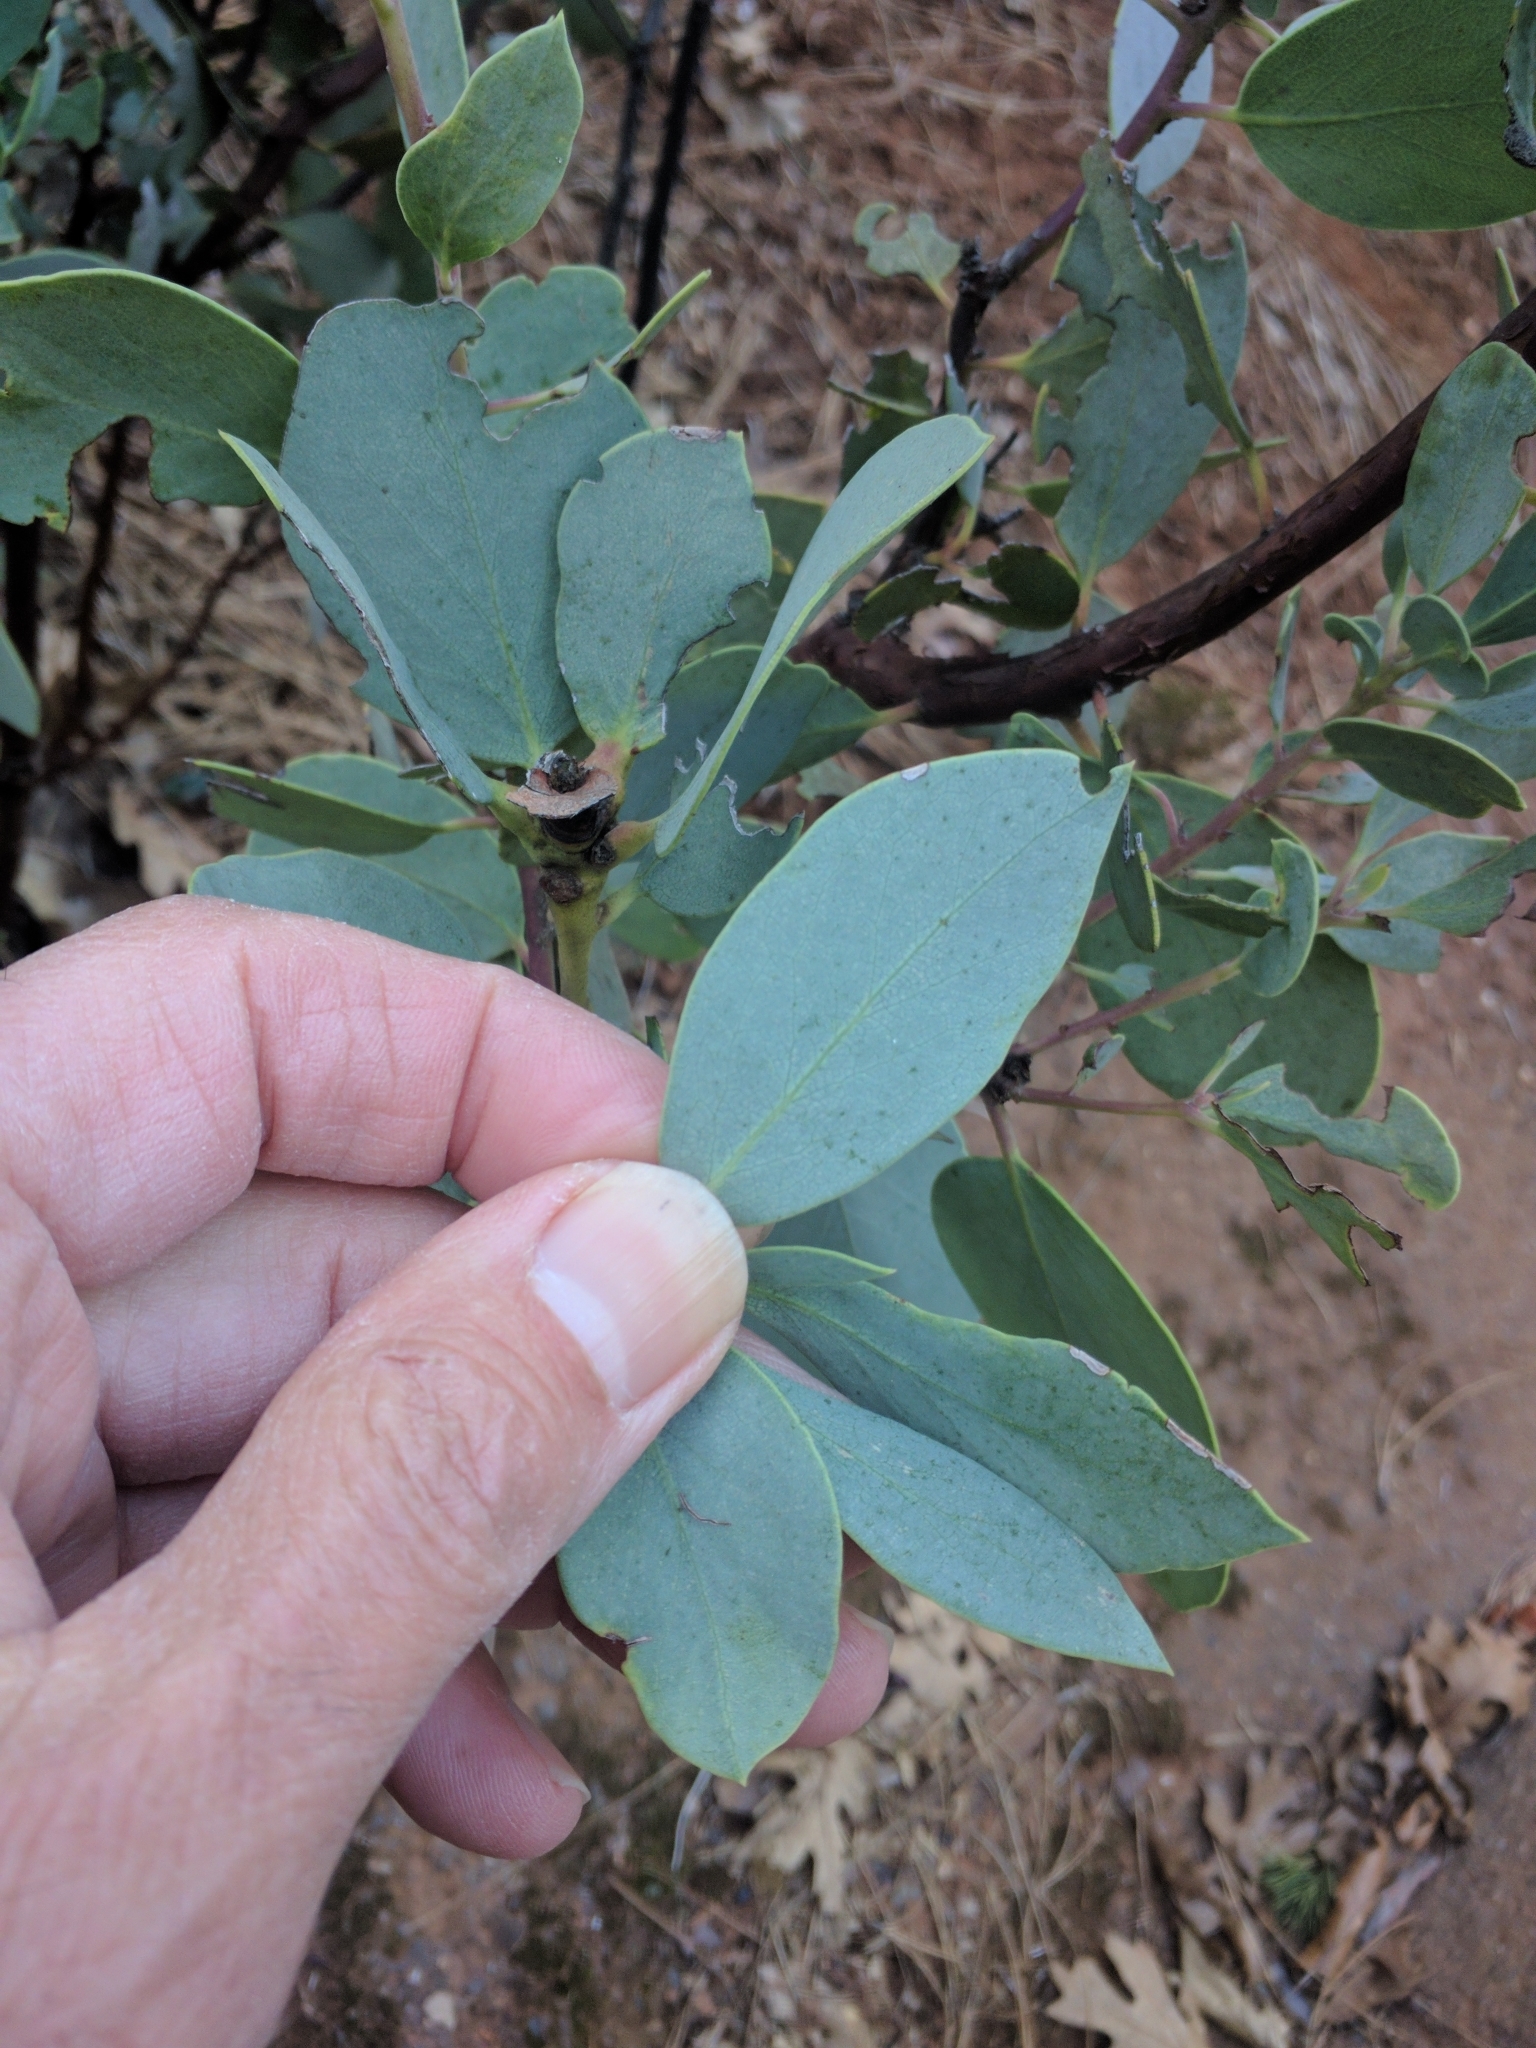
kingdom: Plantae
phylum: Tracheophyta
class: Magnoliopsida
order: Ericales
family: Ericaceae
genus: Arctostaphylos
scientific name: Arctostaphylos viscida
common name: White-leaf manzanita
